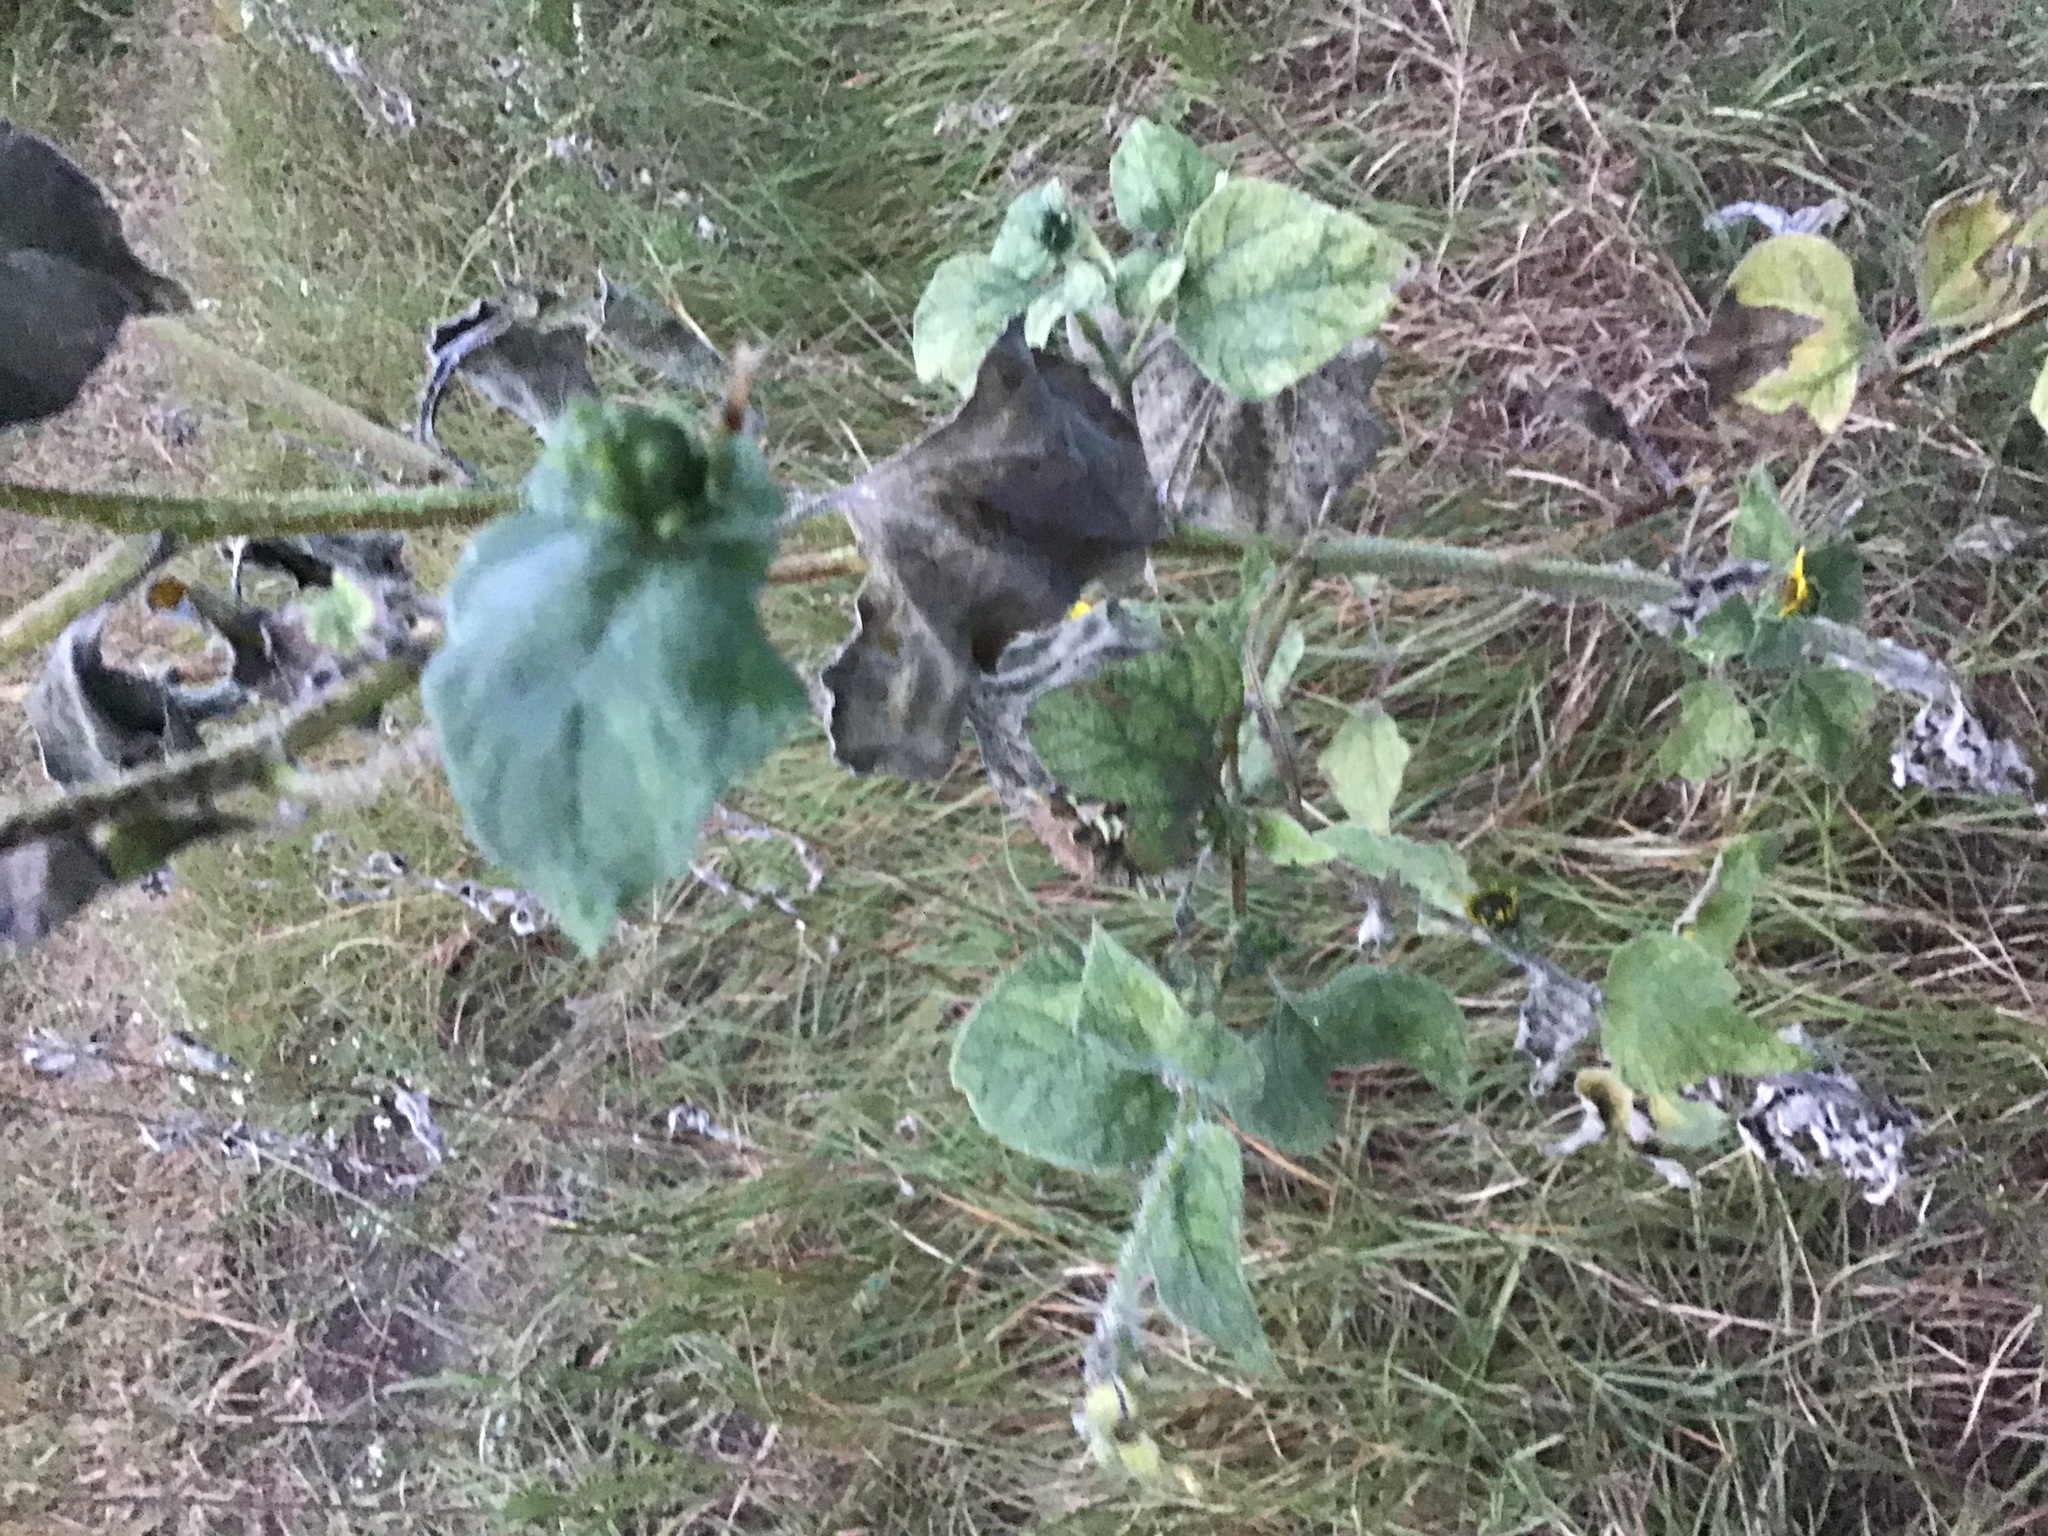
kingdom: Plantae
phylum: Tracheophyta
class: Magnoliopsida
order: Asterales
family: Asteraceae
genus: Helianthus
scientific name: Helianthus annuus
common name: Sunflower
